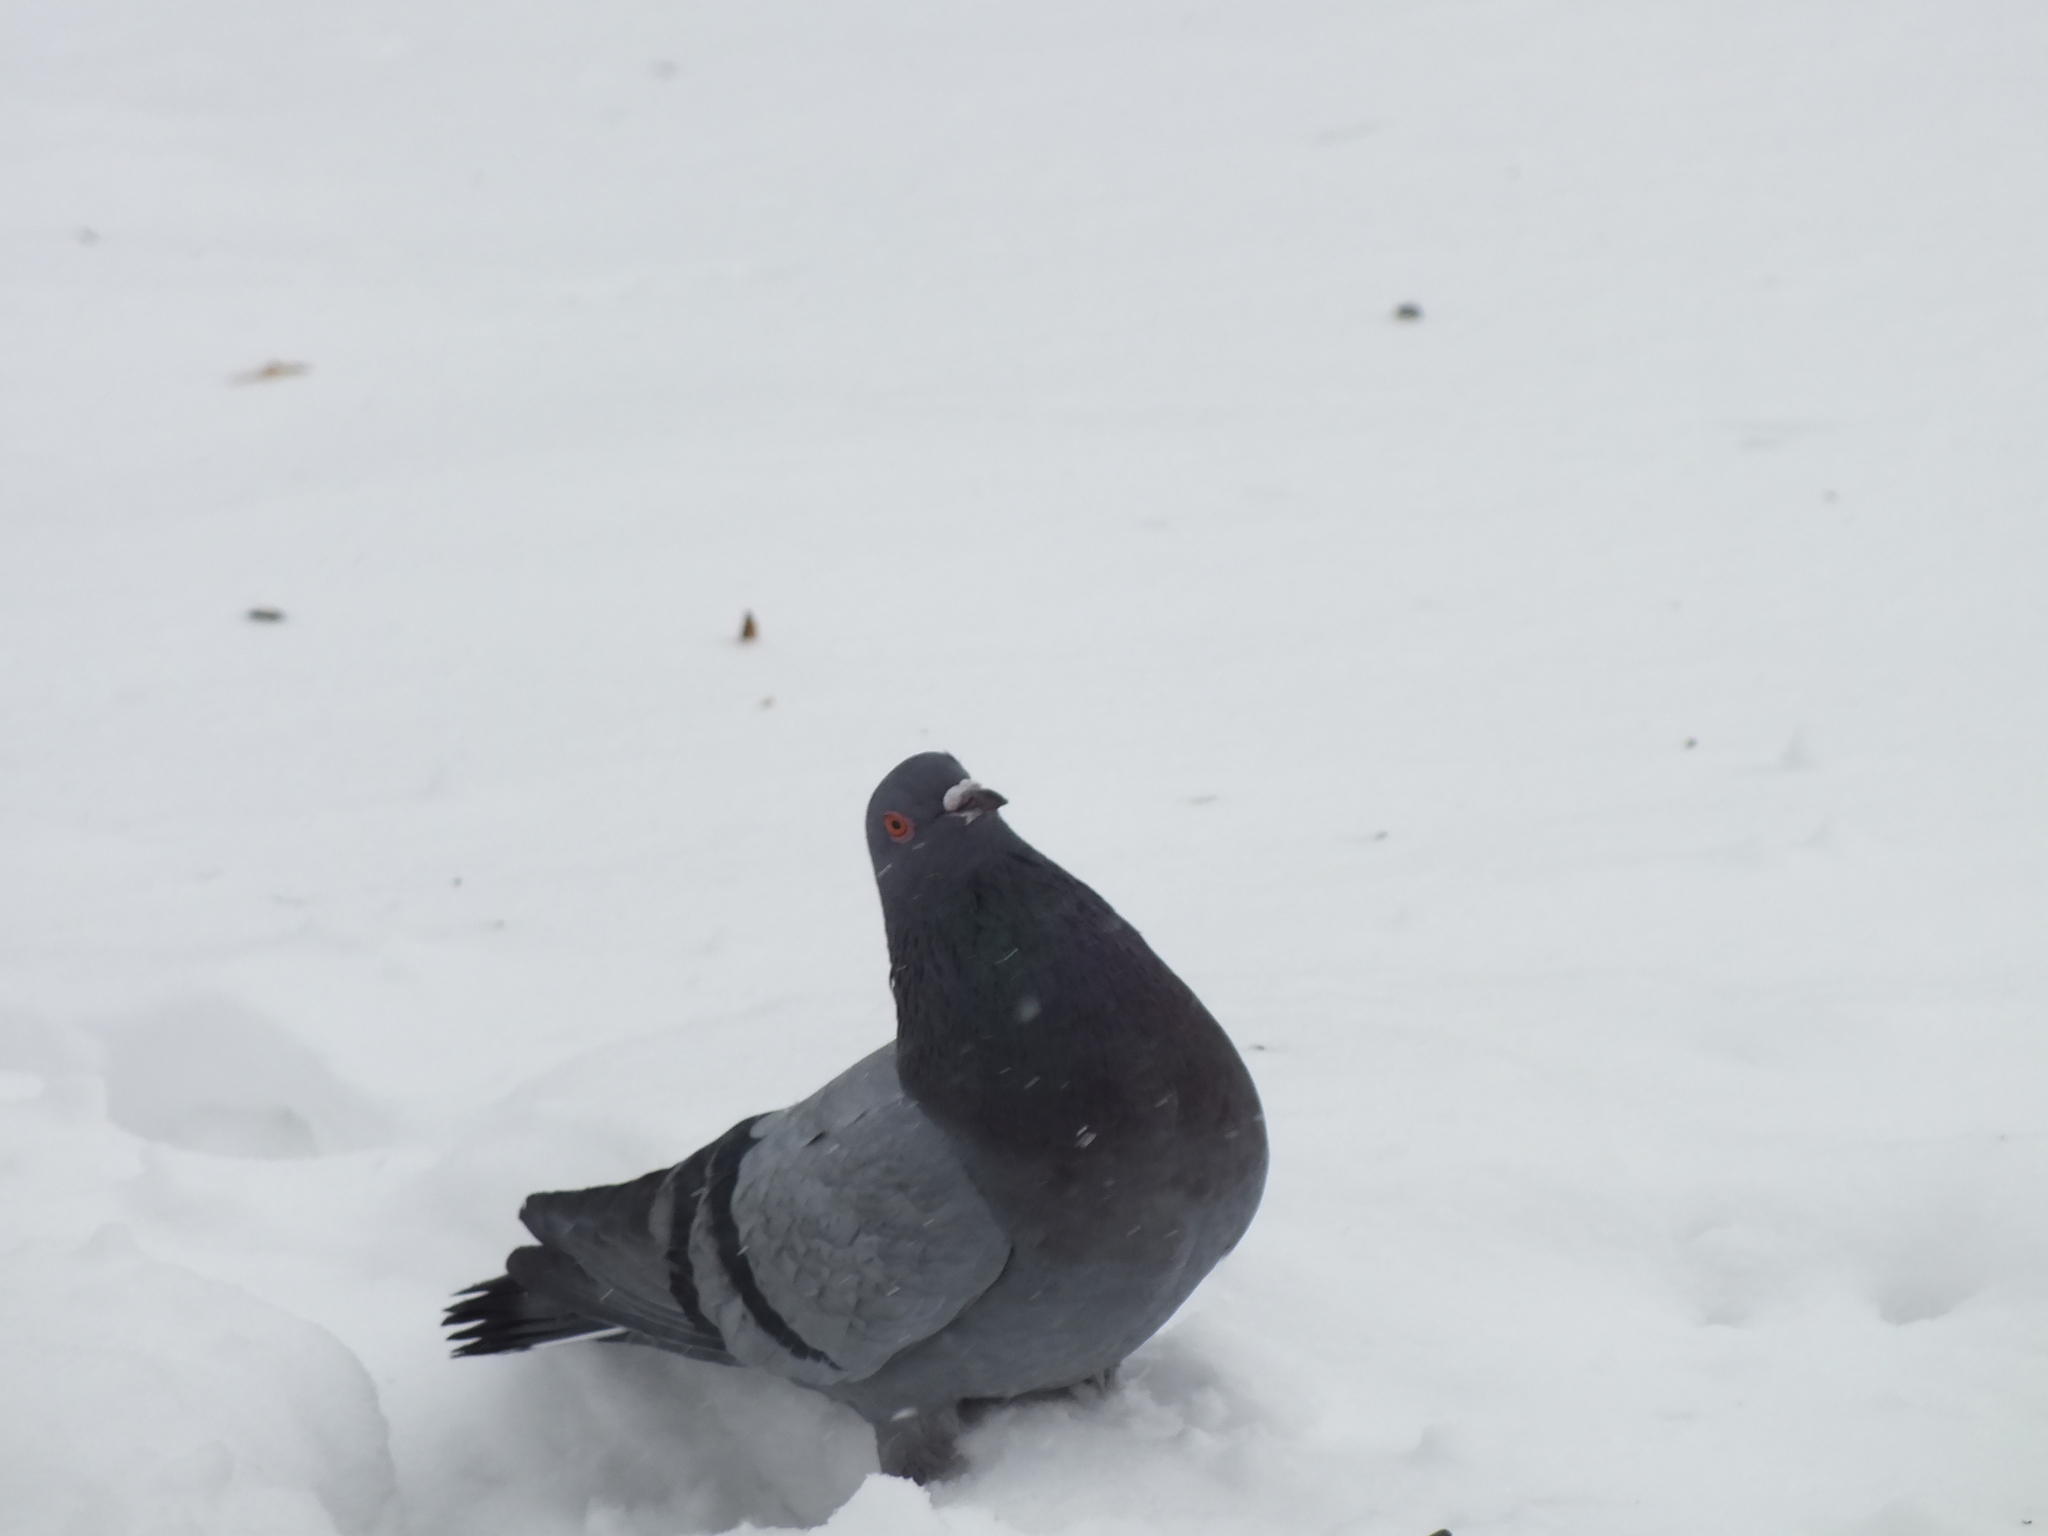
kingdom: Animalia
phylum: Chordata
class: Aves
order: Columbiformes
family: Columbidae
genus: Columba
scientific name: Columba livia
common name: Rock pigeon
